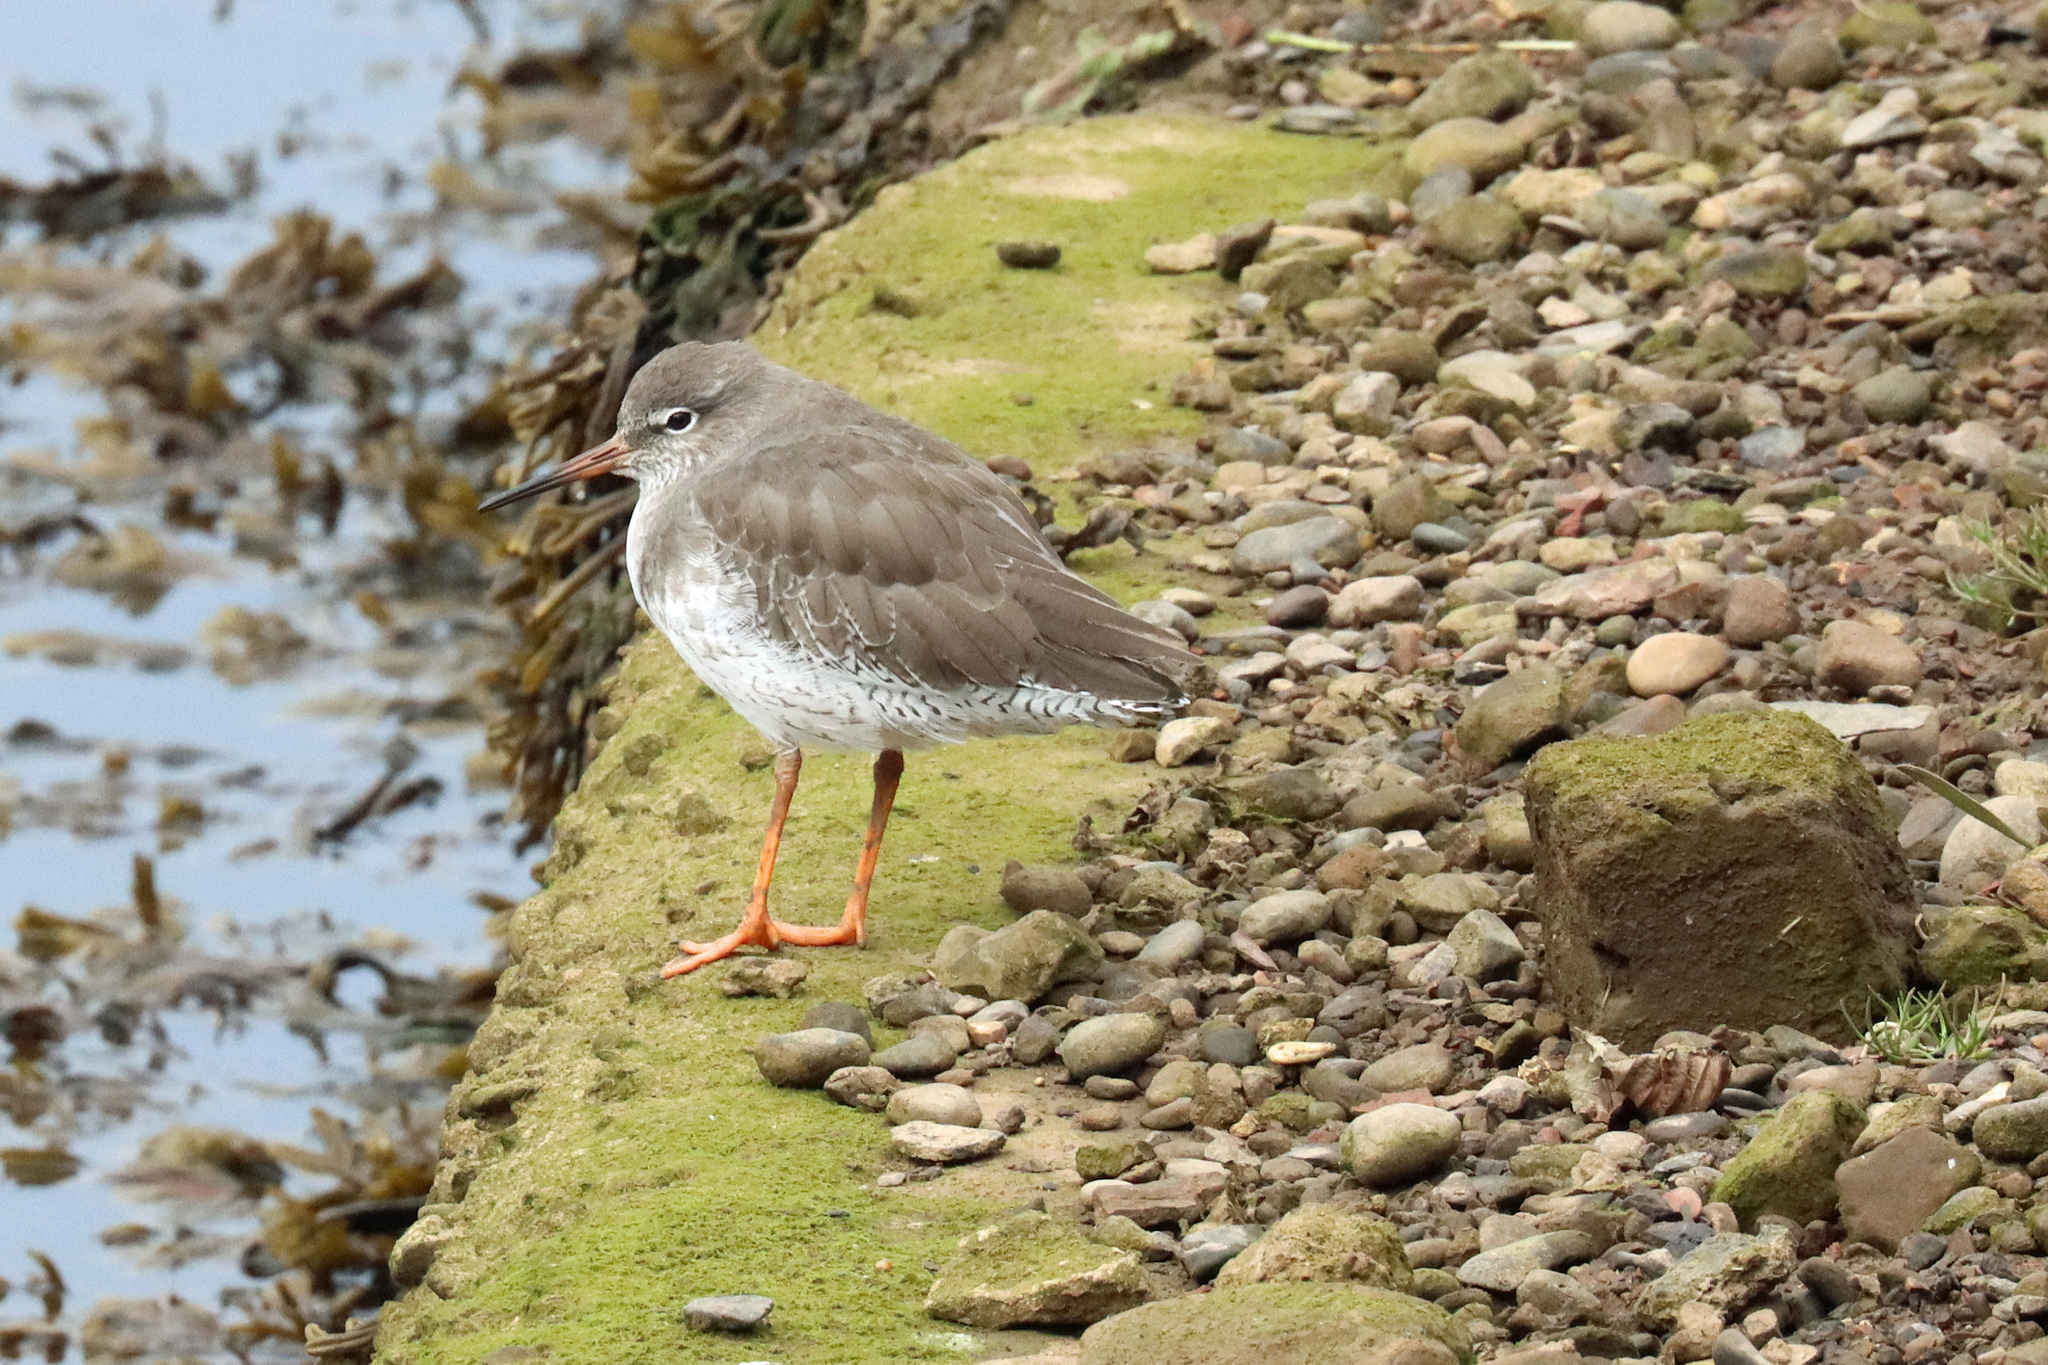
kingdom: Animalia
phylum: Chordata
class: Aves
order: Charadriiformes
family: Scolopacidae
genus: Tringa
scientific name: Tringa totanus
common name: Common redshank
